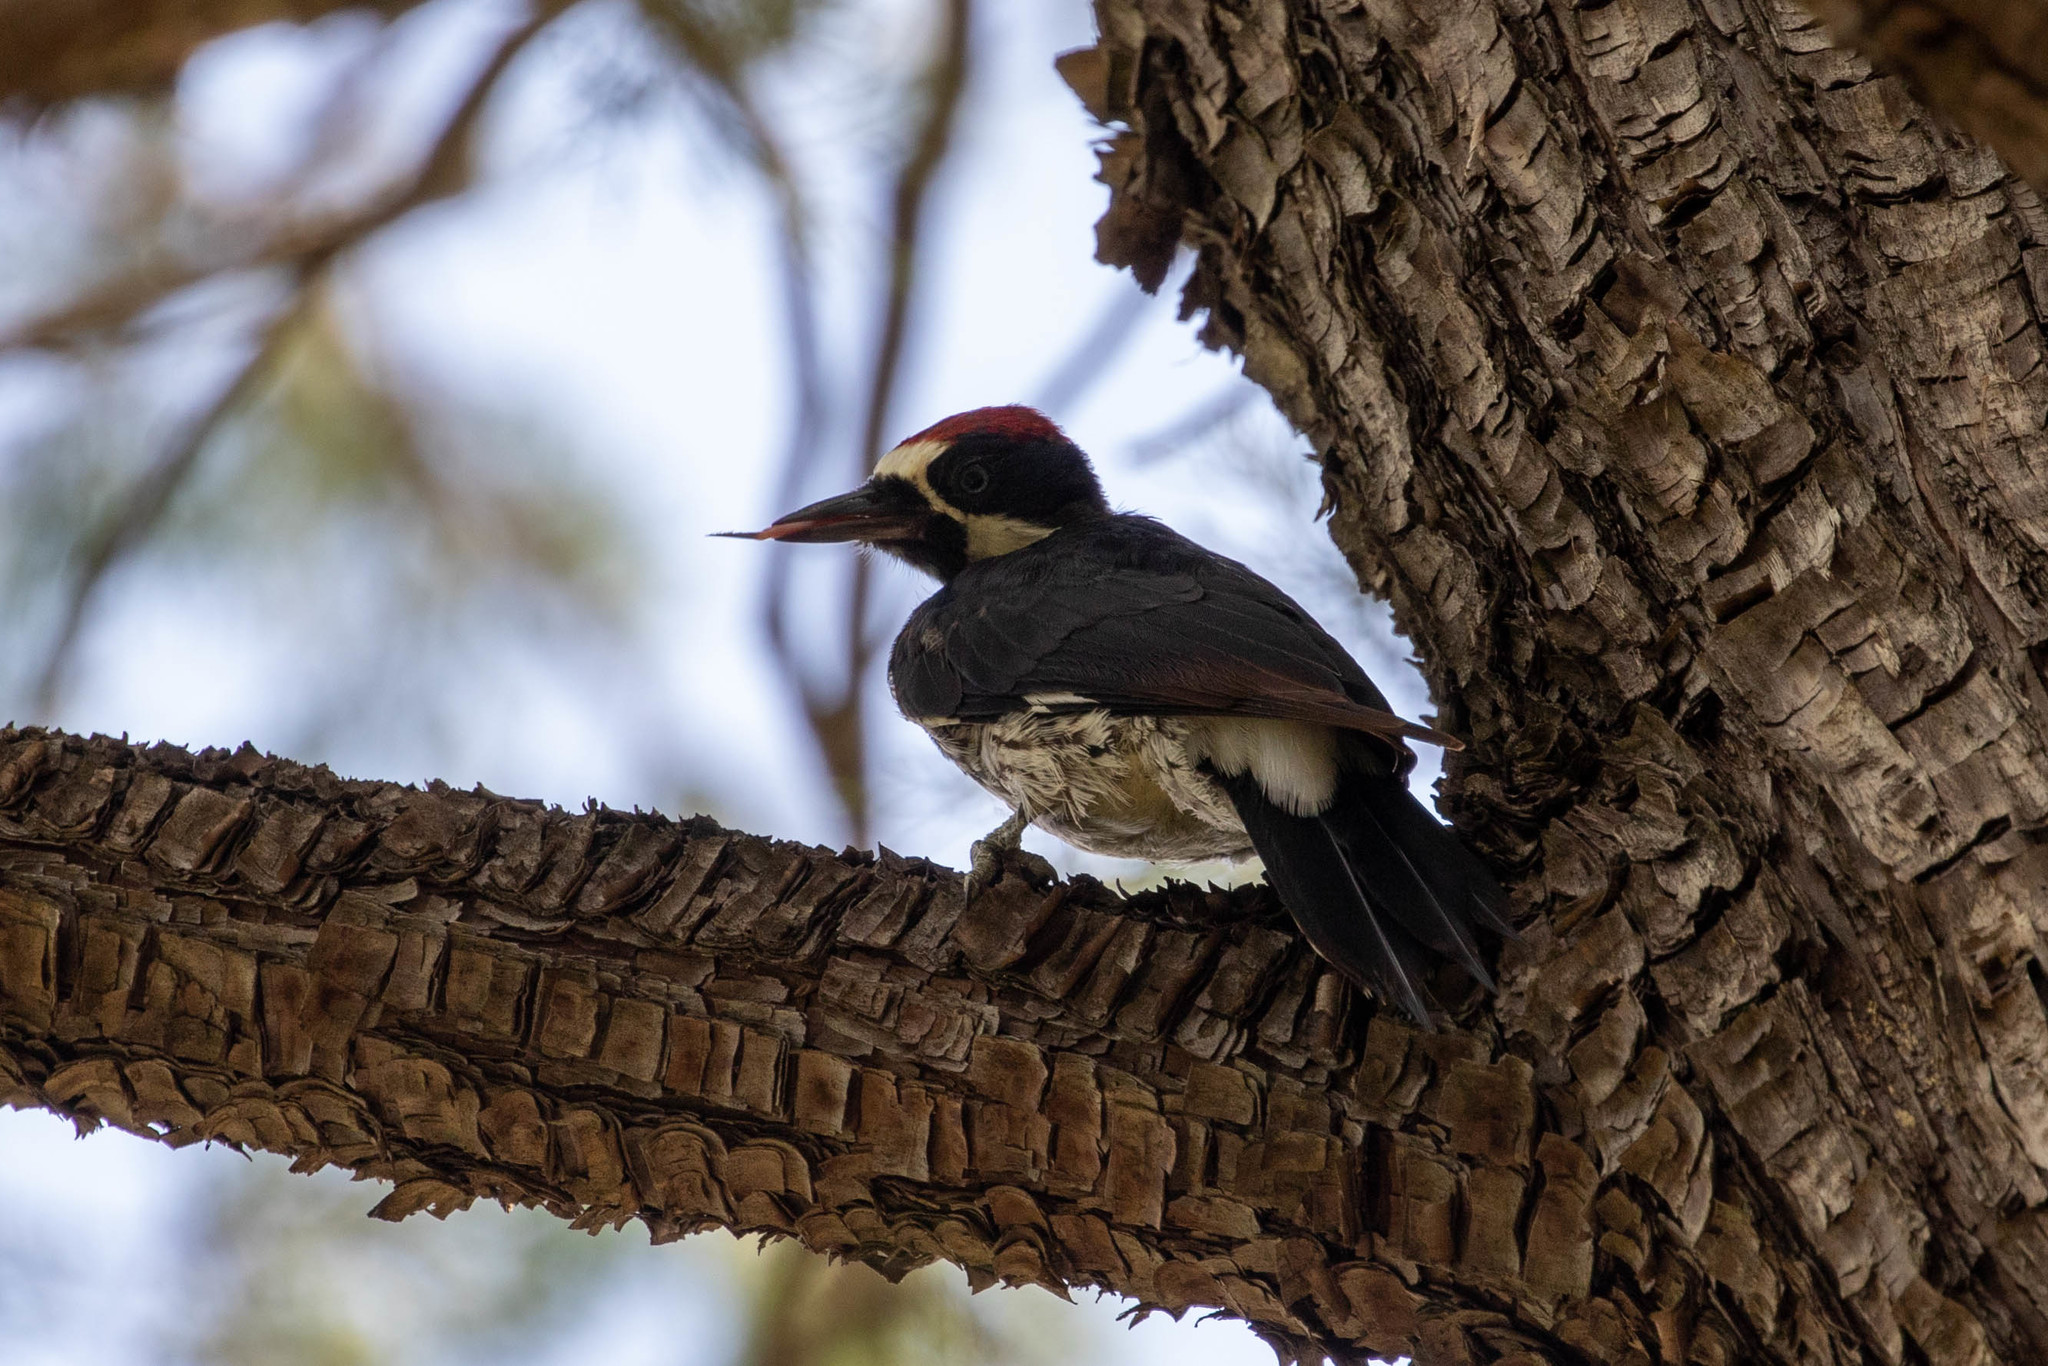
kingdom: Animalia
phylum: Chordata
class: Aves
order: Piciformes
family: Picidae
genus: Melanerpes
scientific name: Melanerpes formicivorus
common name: Acorn woodpecker
